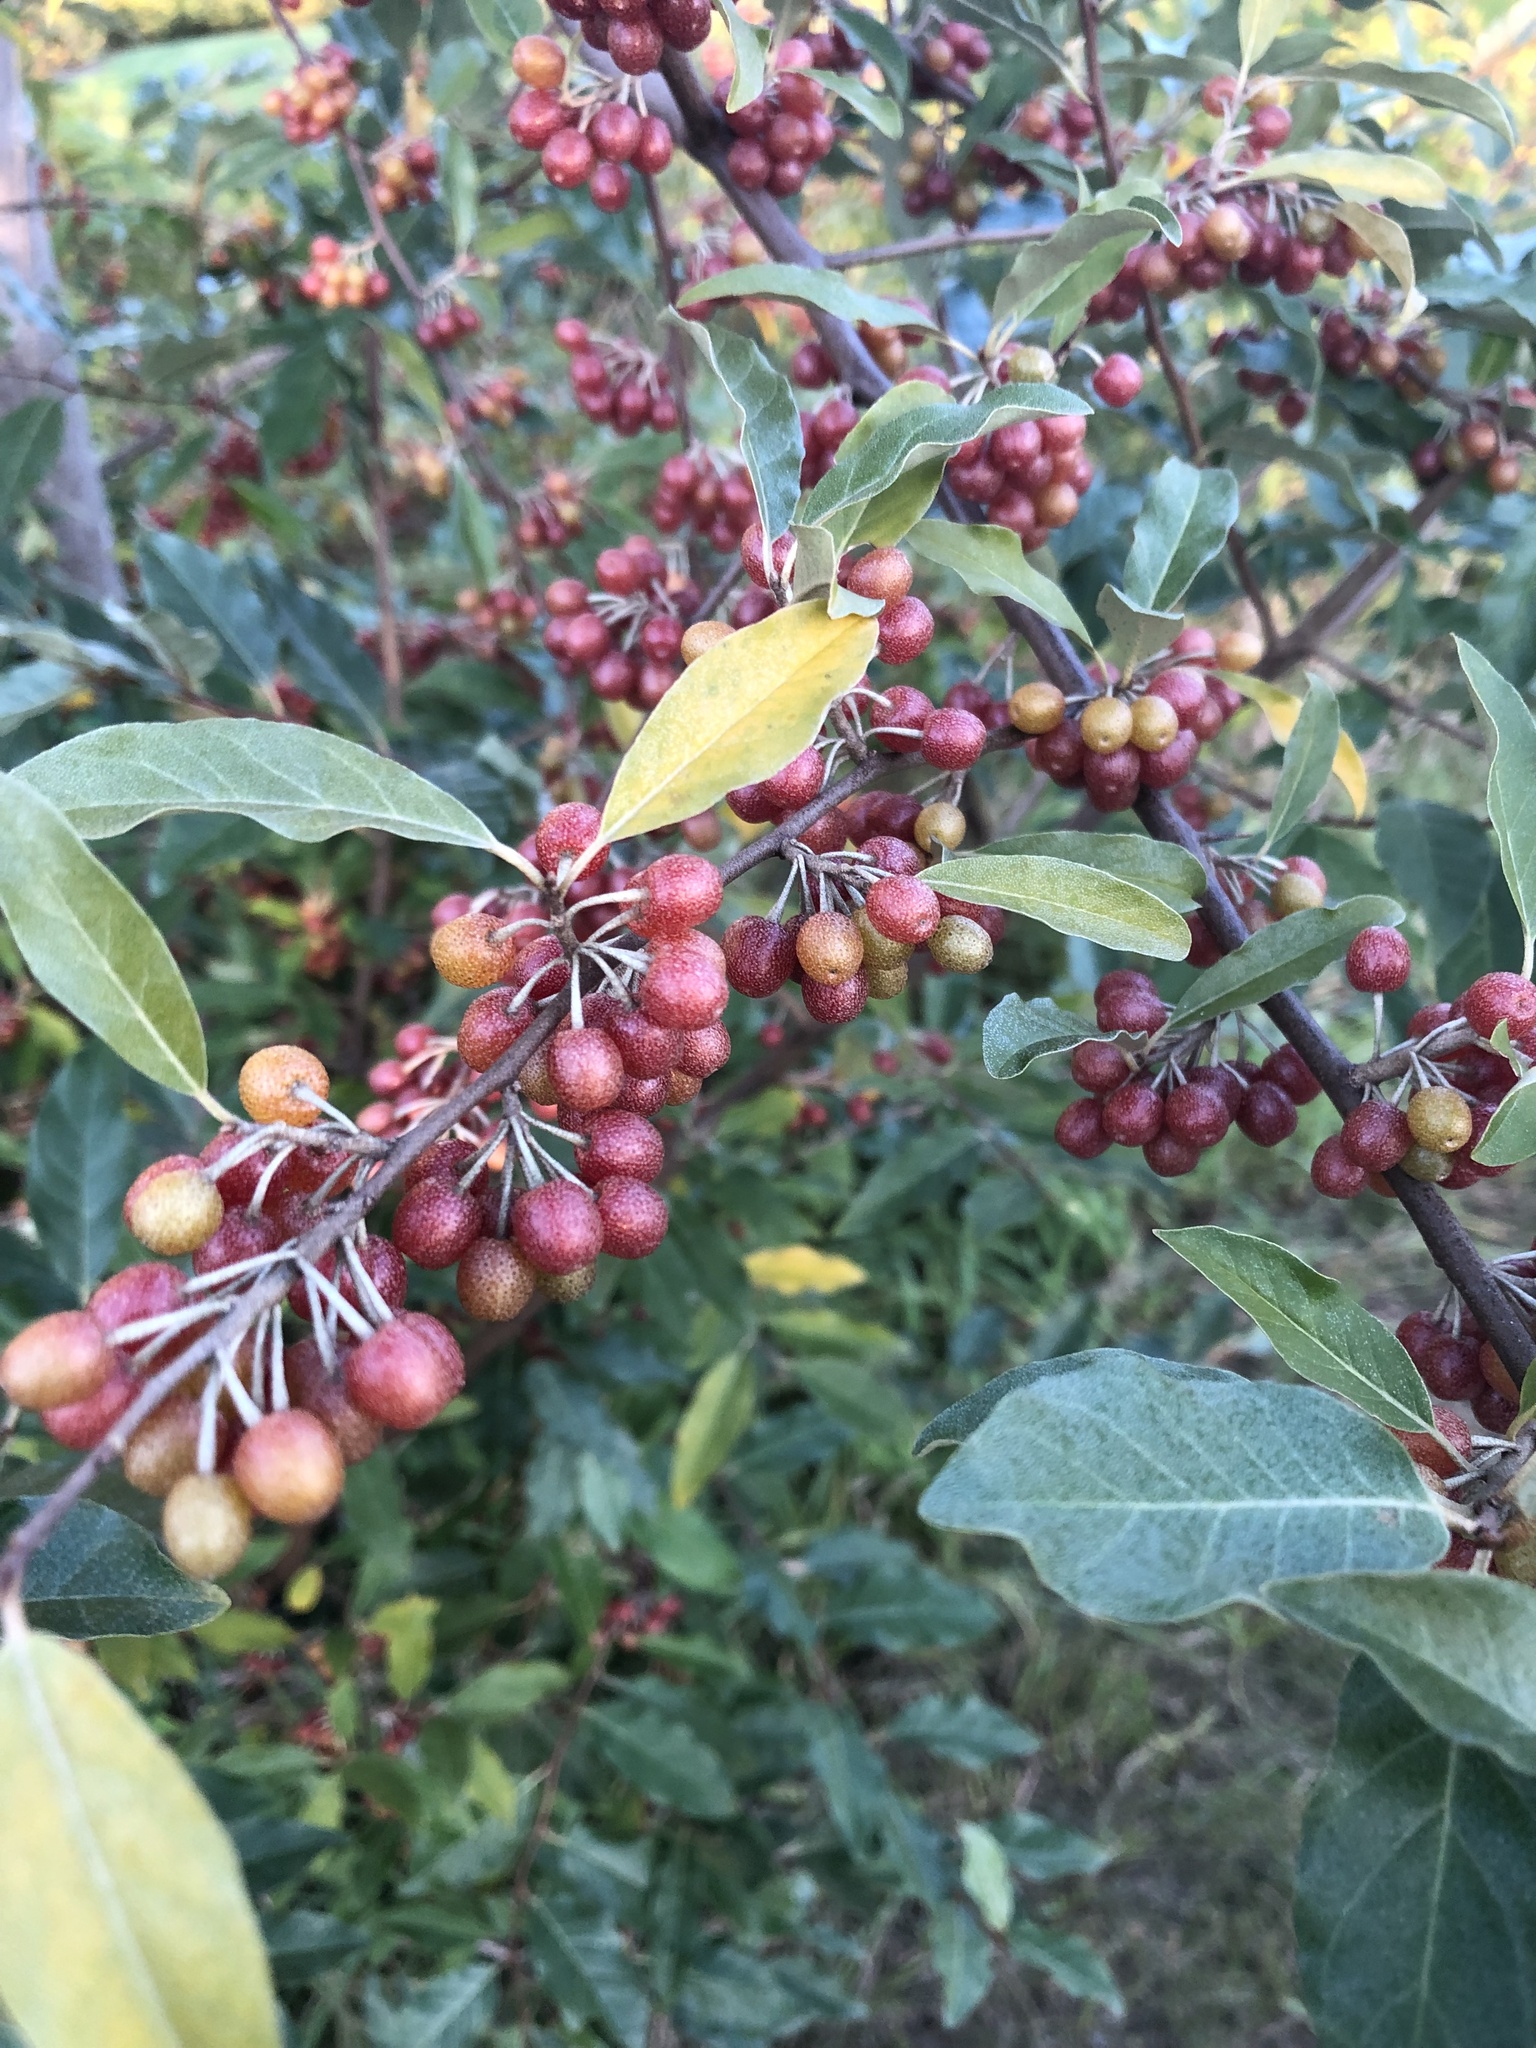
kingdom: Plantae
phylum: Tracheophyta
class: Magnoliopsida
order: Rosales
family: Elaeagnaceae
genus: Elaeagnus
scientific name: Elaeagnus umbellata
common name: Autumn olive
